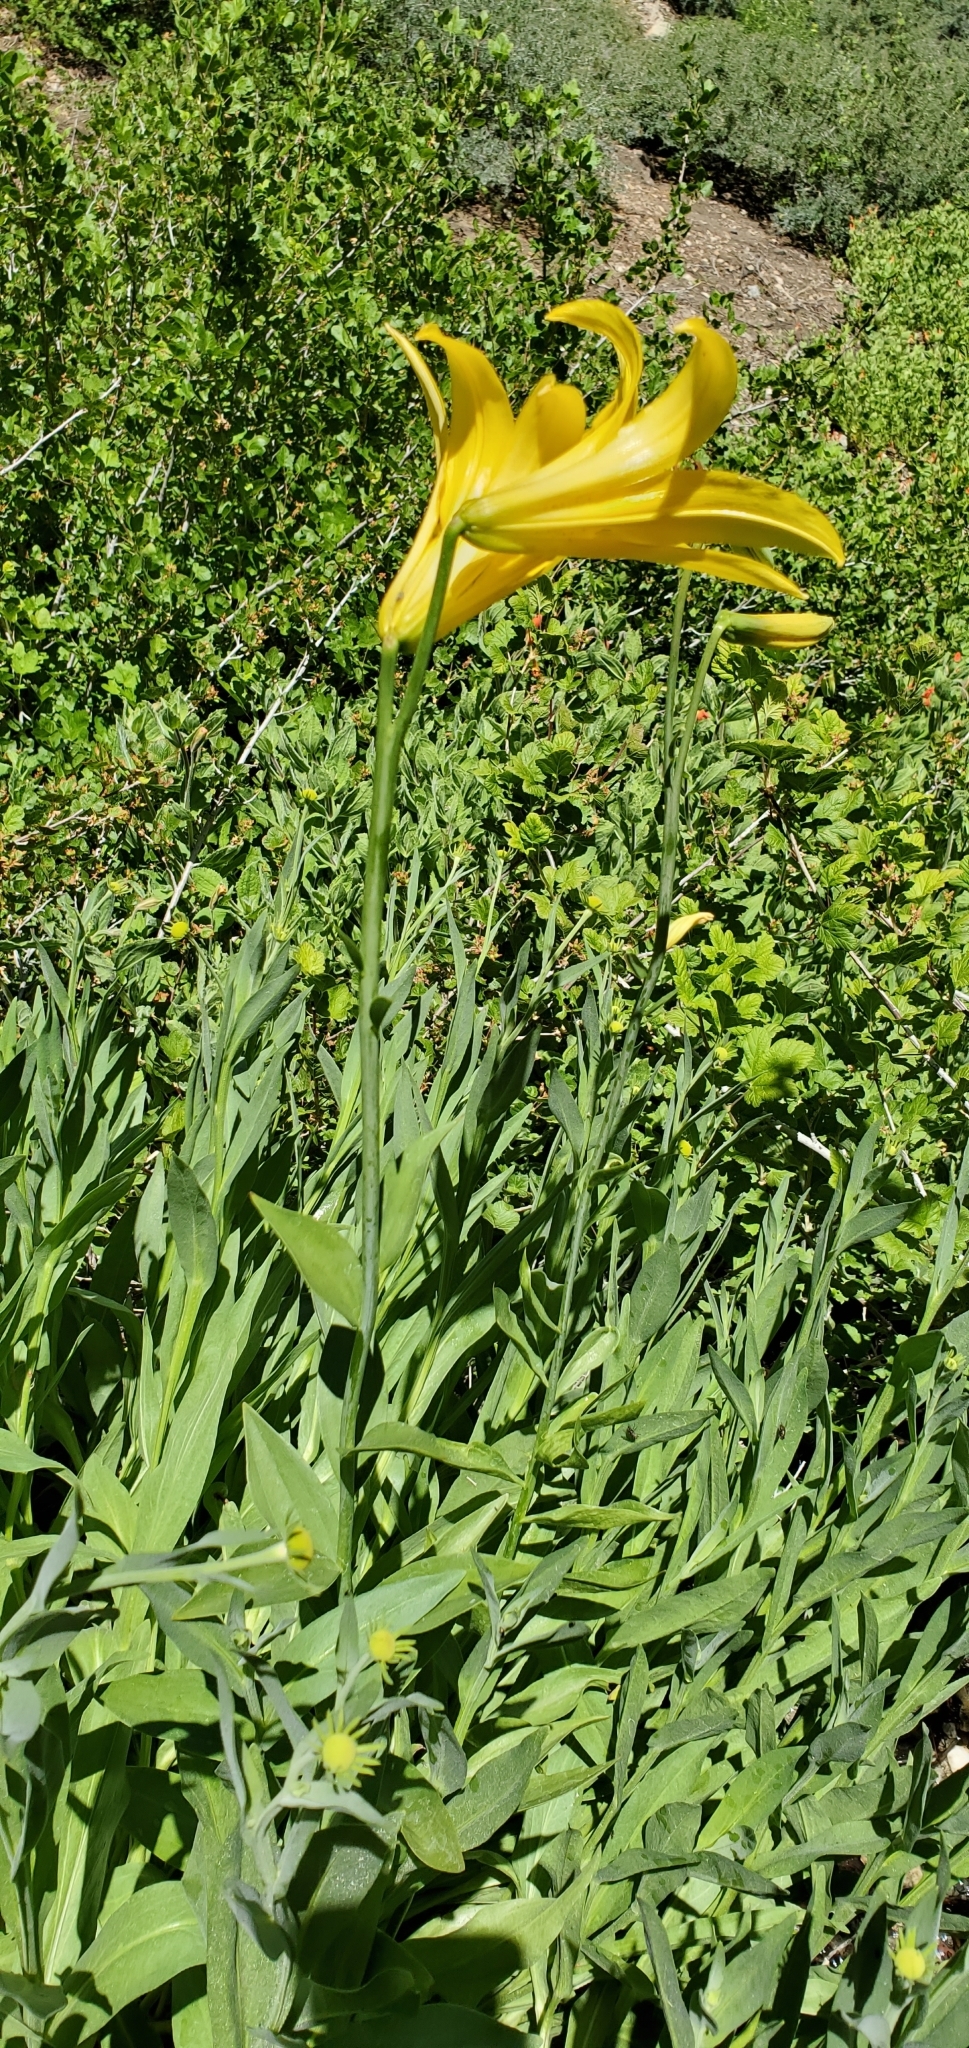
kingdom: Plantae
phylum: Tracheophyta
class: Liliopsida
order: Liliales
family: Liliaceae
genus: Lilium
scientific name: Lilium parryi
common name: Lemon lily
